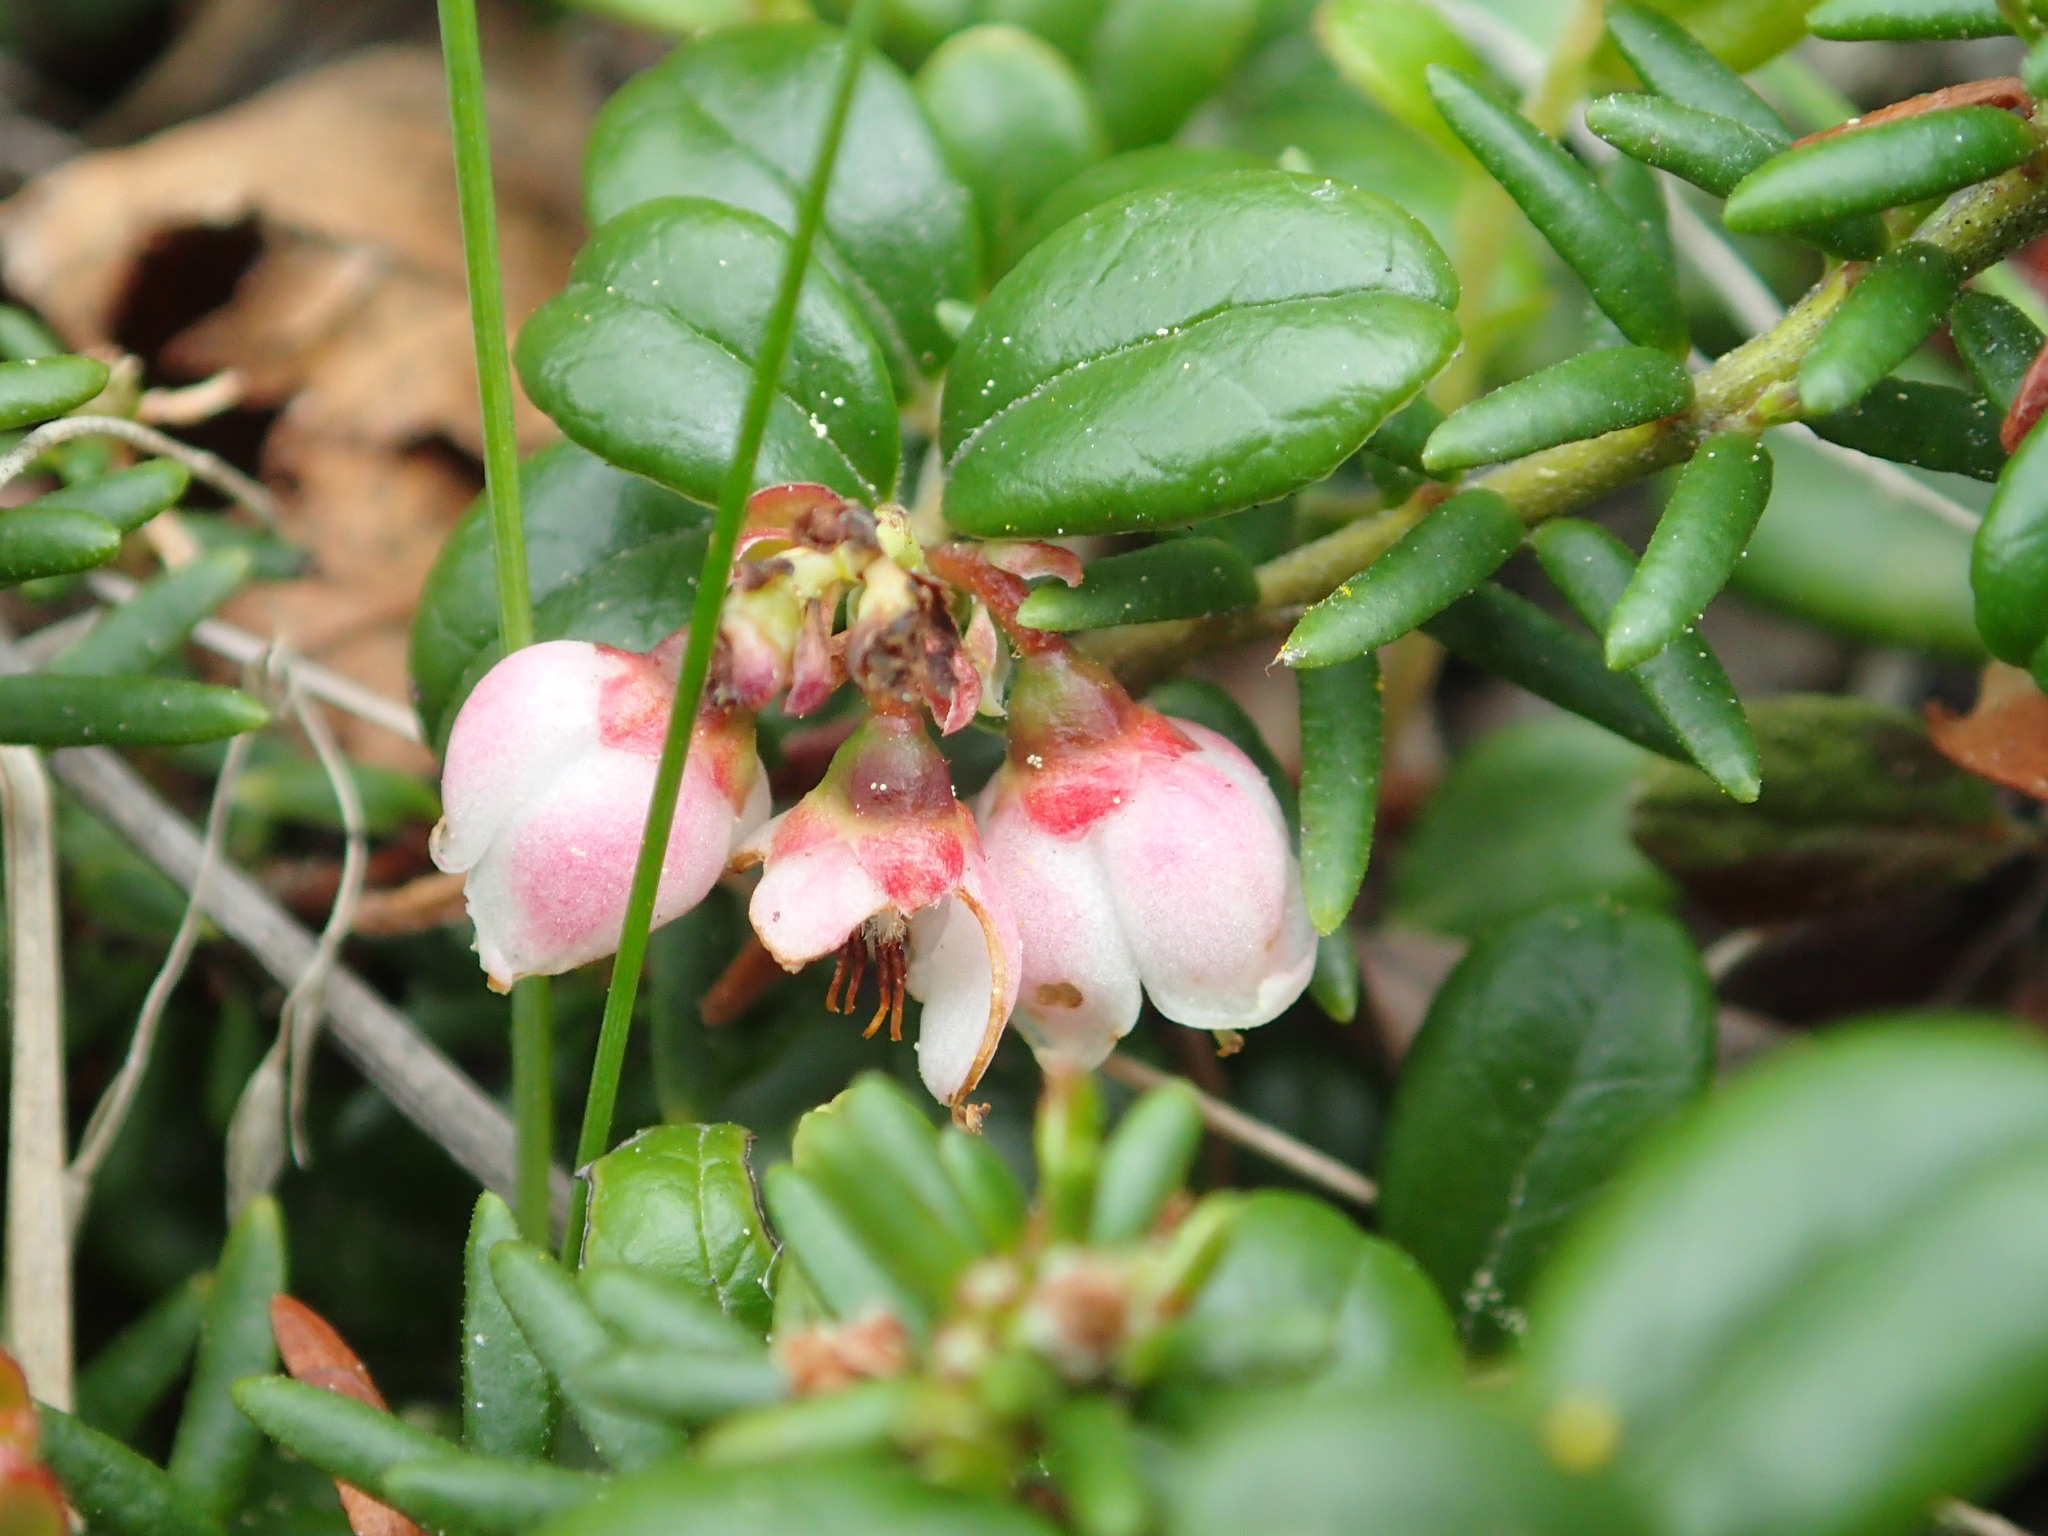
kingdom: Plantae
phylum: Tracheophyta
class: Magnoliopsida
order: Ericales
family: Ericaceae
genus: Vaccinium
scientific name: Vaccinium vitis-idaea
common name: Cowberry
